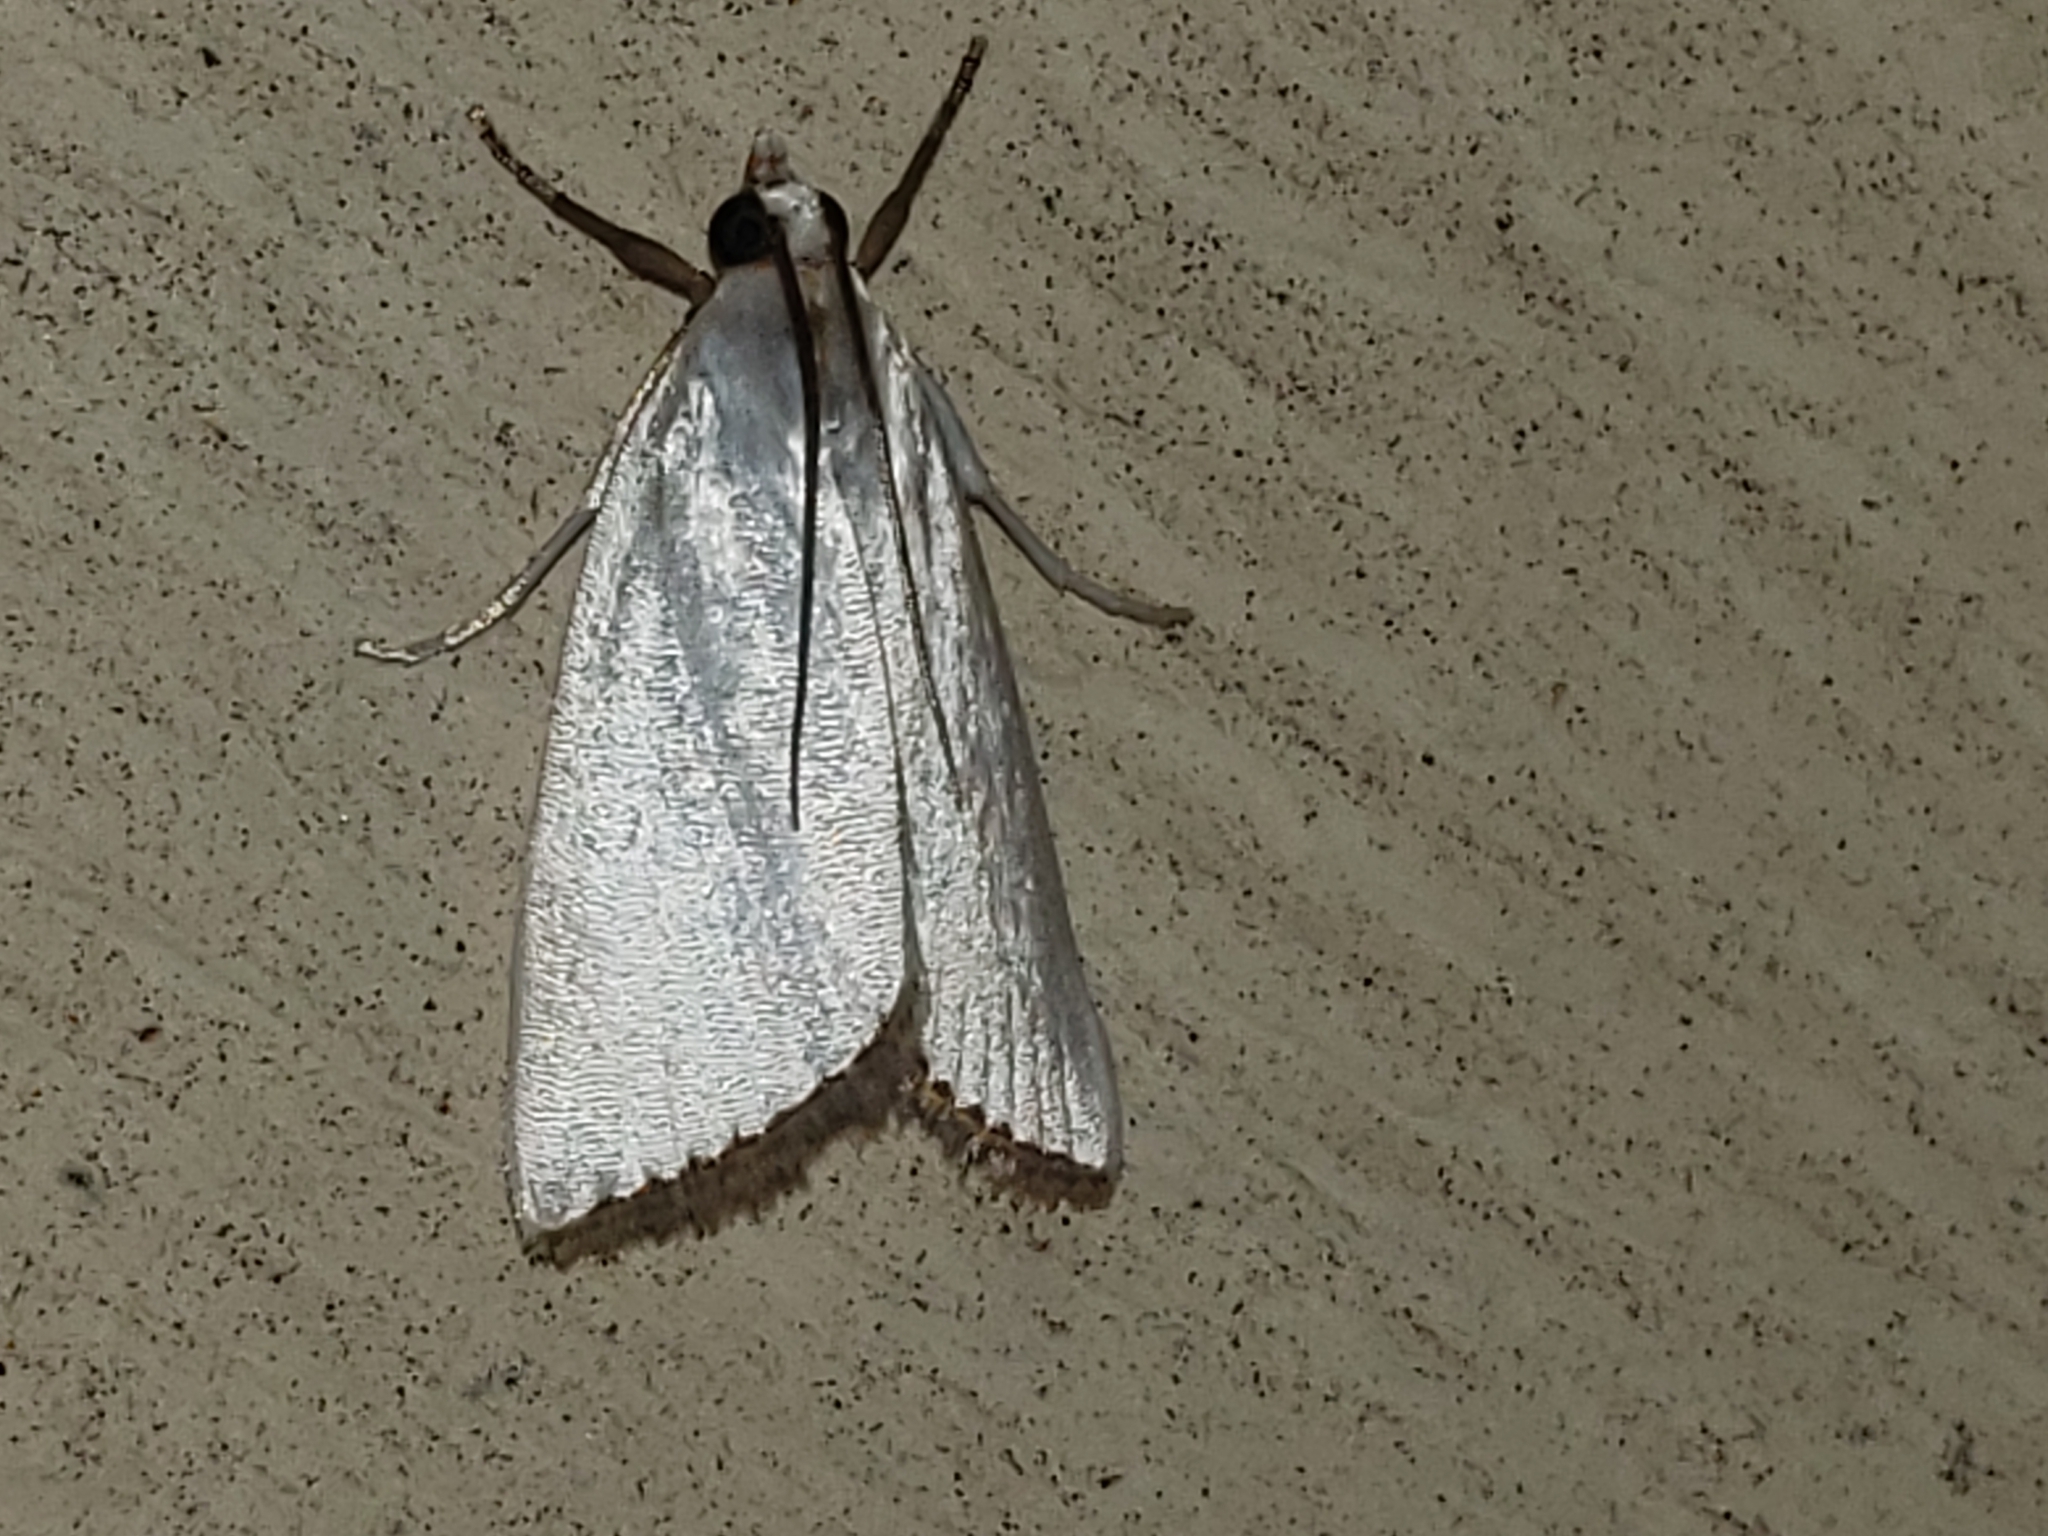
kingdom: Animalia
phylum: Arthropoda
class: Insecta
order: Lepidoptera
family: Crambidae
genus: Argyria
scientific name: Argyria nivalis
